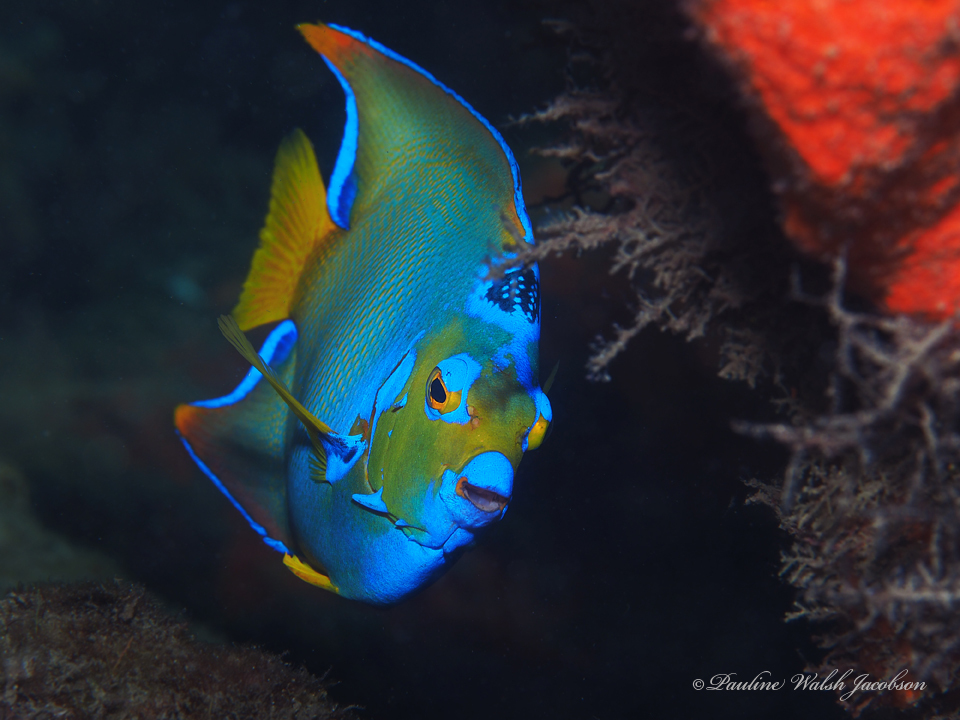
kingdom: Animalia
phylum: Chordata
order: Perciformes
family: Pomacanthidae
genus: Holacanthus
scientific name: Holacanthus ciliaris
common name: Queen angelfish
